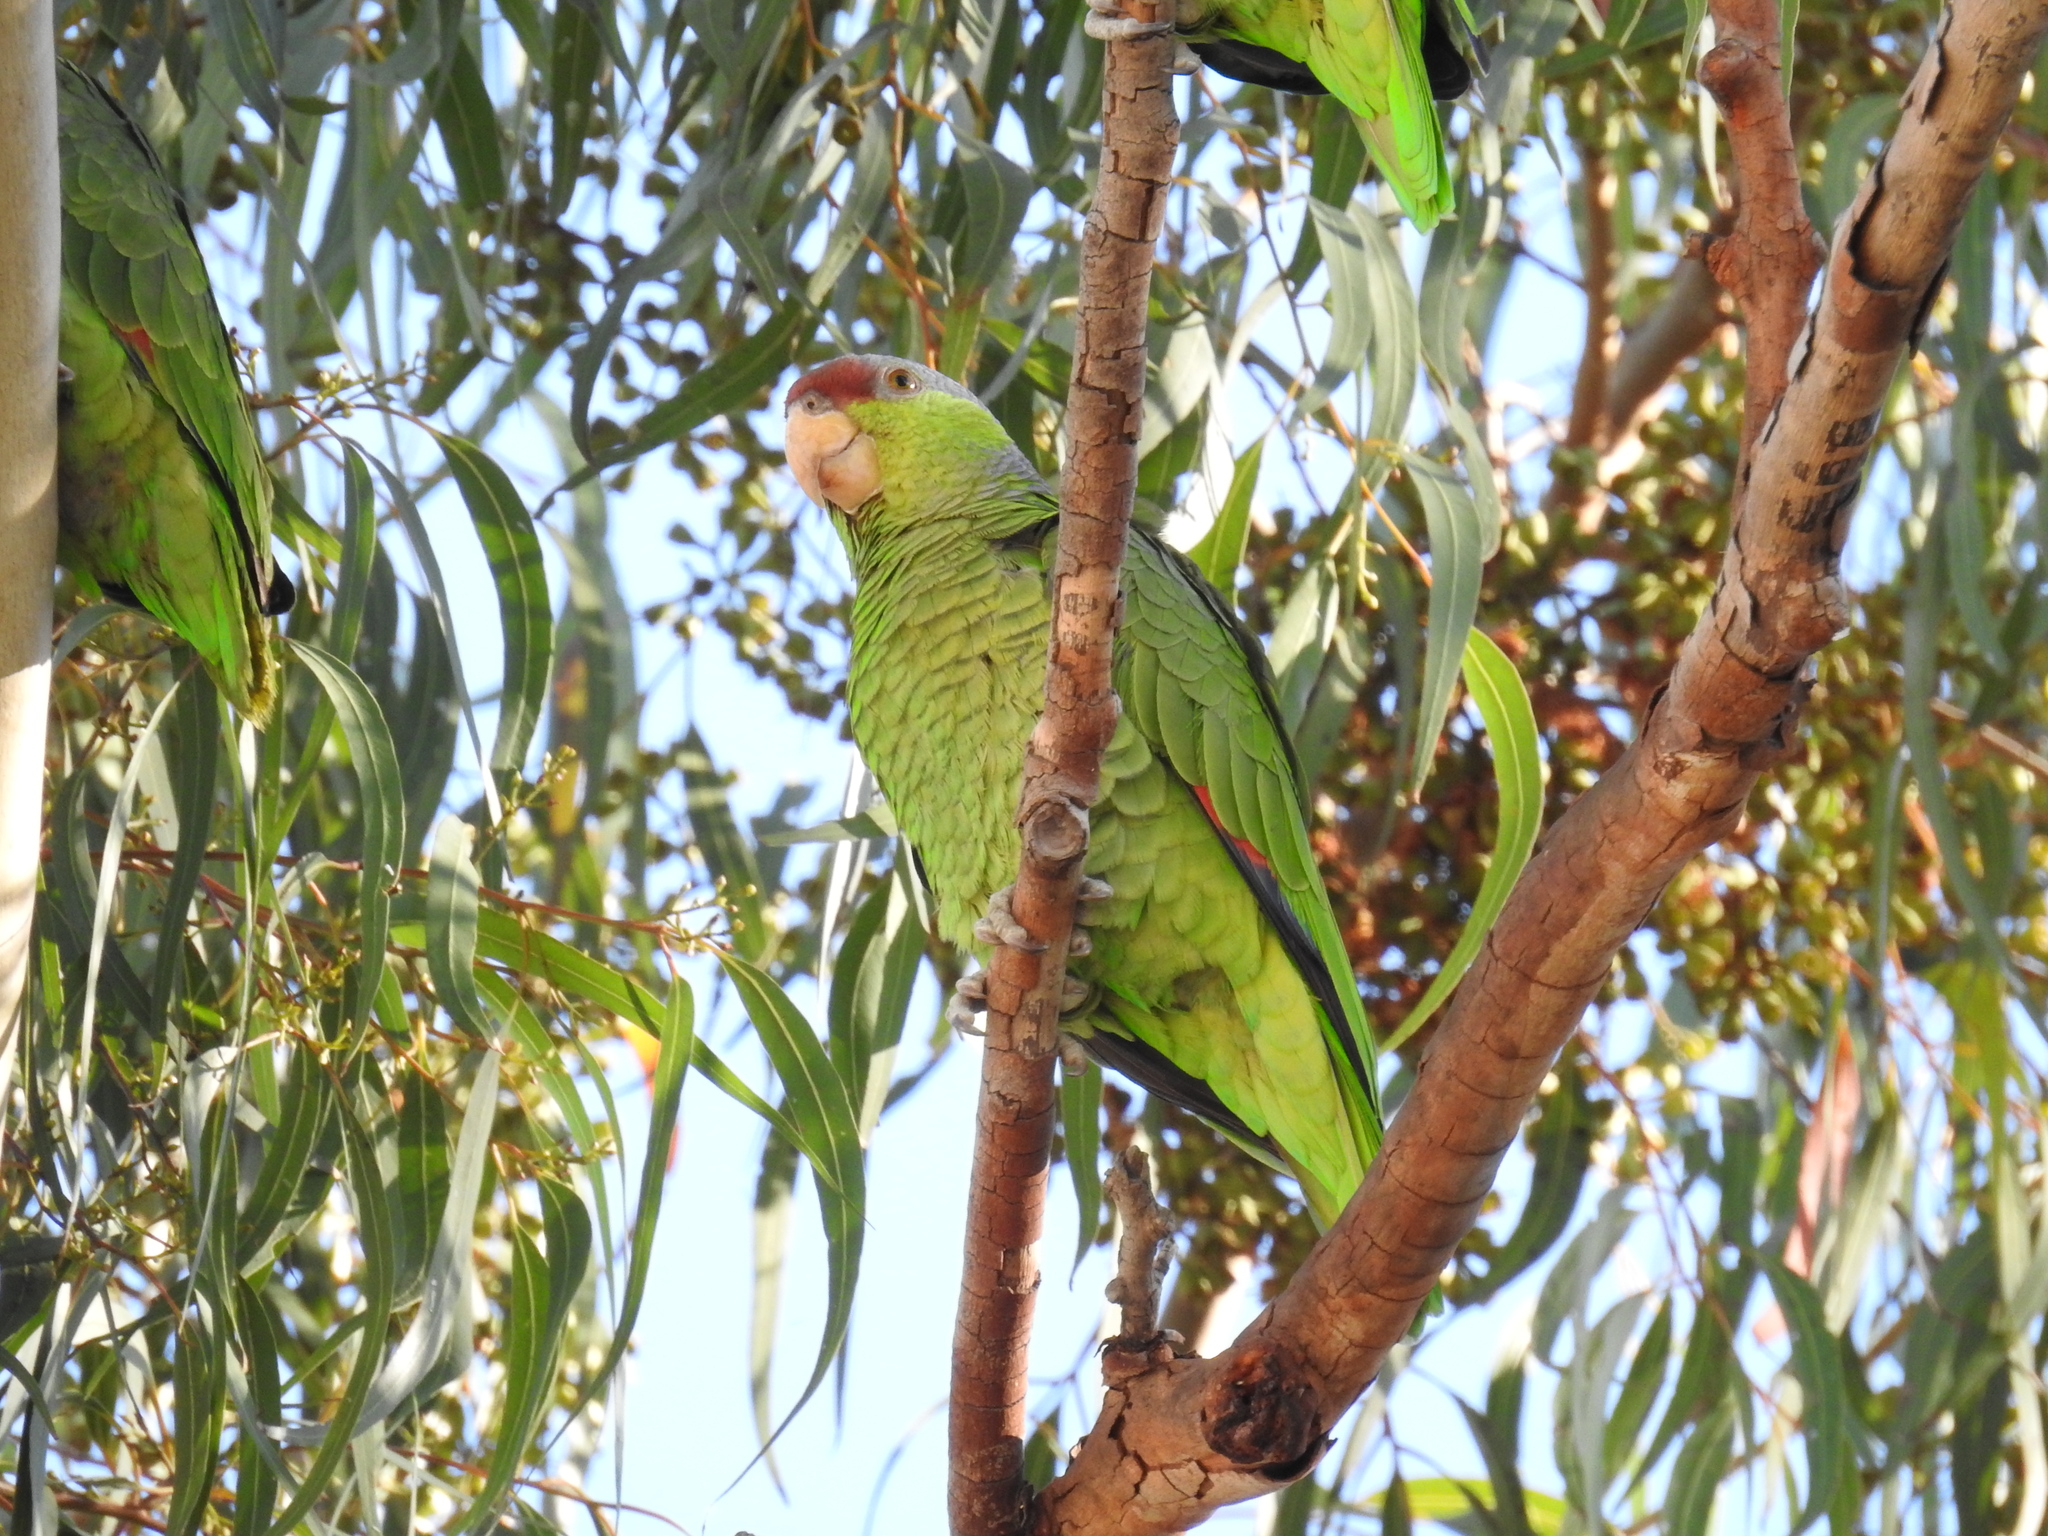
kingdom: Animalia
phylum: Chordata
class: Aves
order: Psittaciformes
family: Psittacidae
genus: Amazona
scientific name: Amazona finschi
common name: Lilac-crowned amazon
